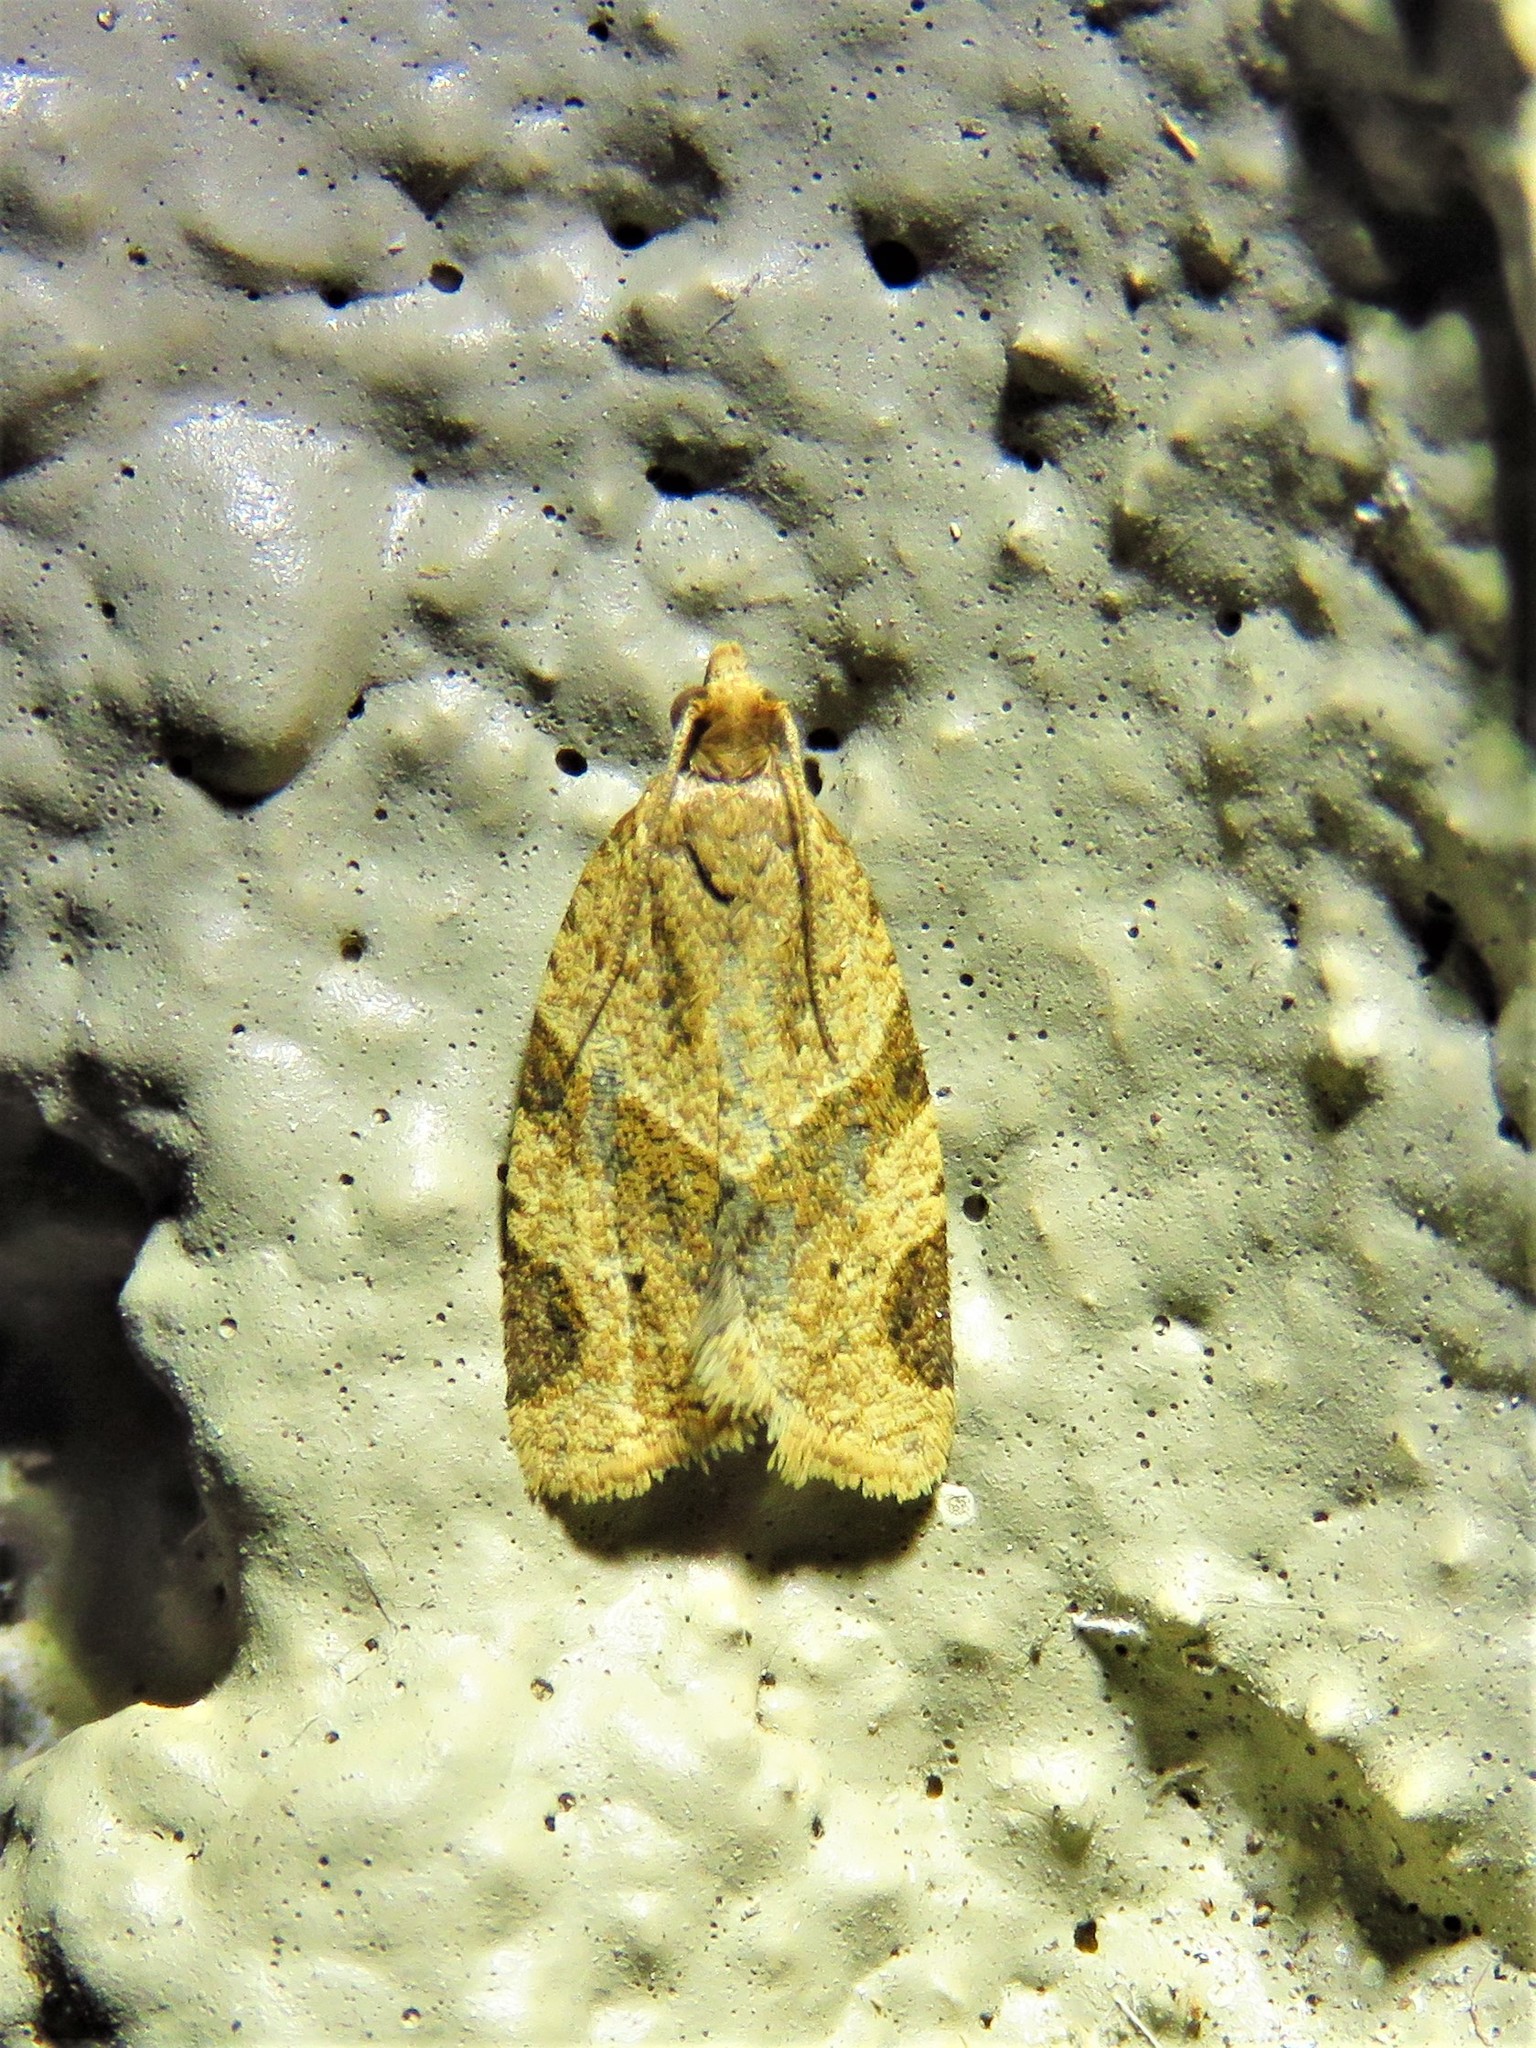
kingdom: Animalia
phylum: Arthropoda
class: Insecta
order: Lepidoptera
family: Tortricidae
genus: Clepsis
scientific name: Clepsis peritana
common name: Garden tortrix
